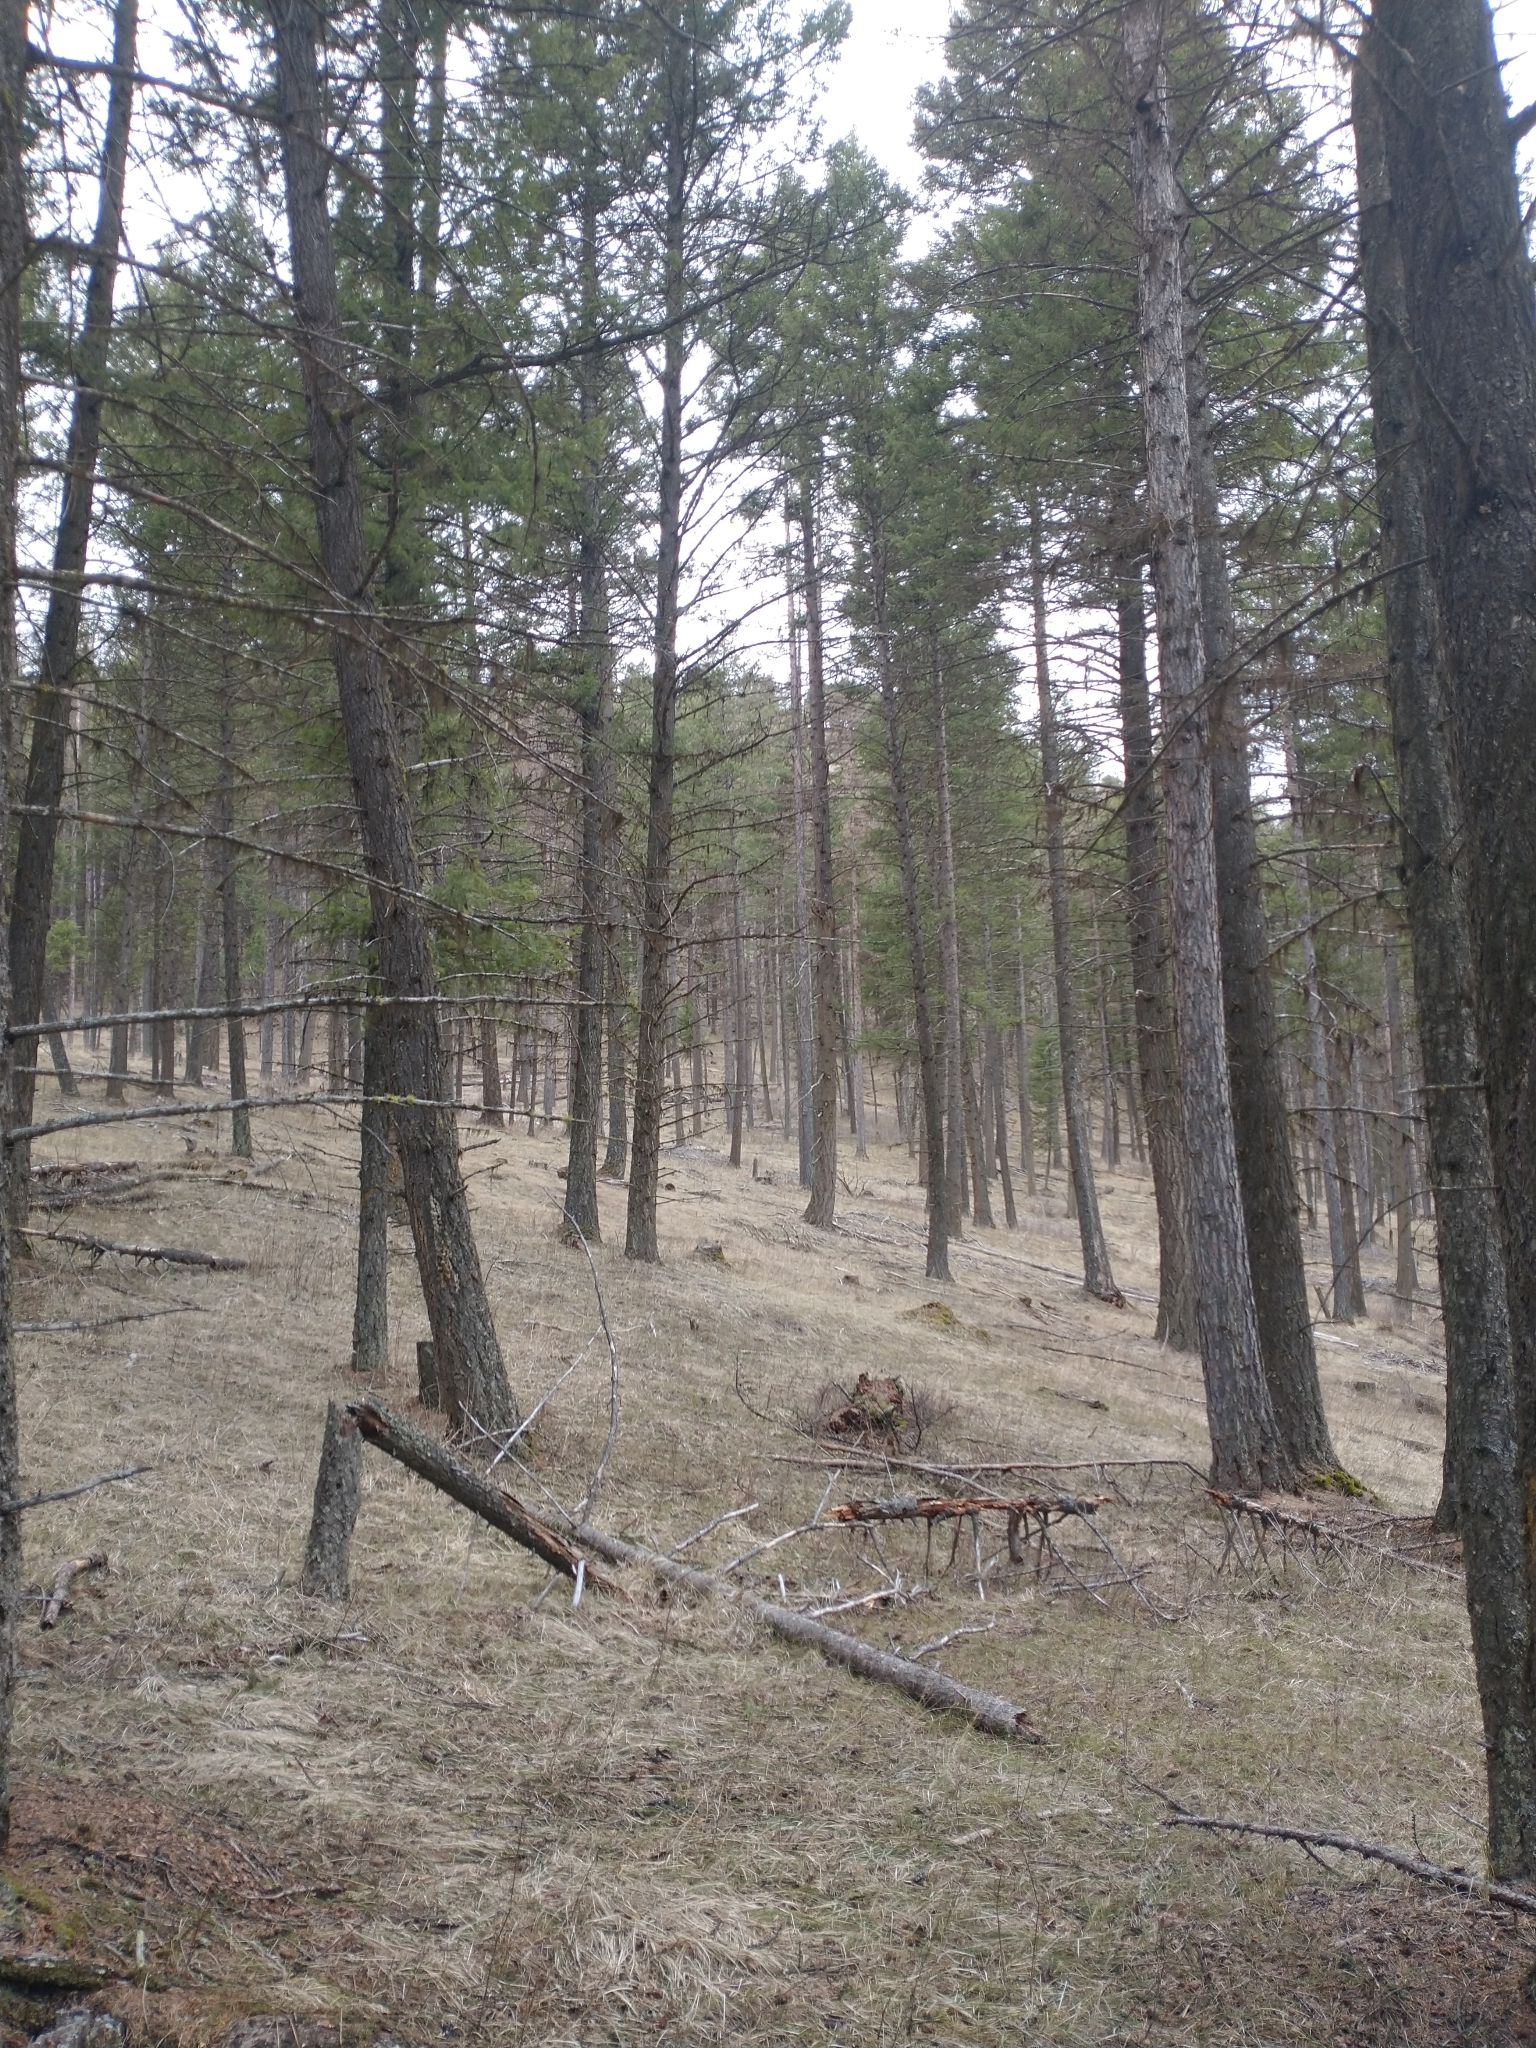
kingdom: Plantae
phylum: Tracheophyta
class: Pinopsida
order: Pinales
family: Pinaceae
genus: Pseudotsuga
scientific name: Pseudotsuga menziesii
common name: Douglas fir
